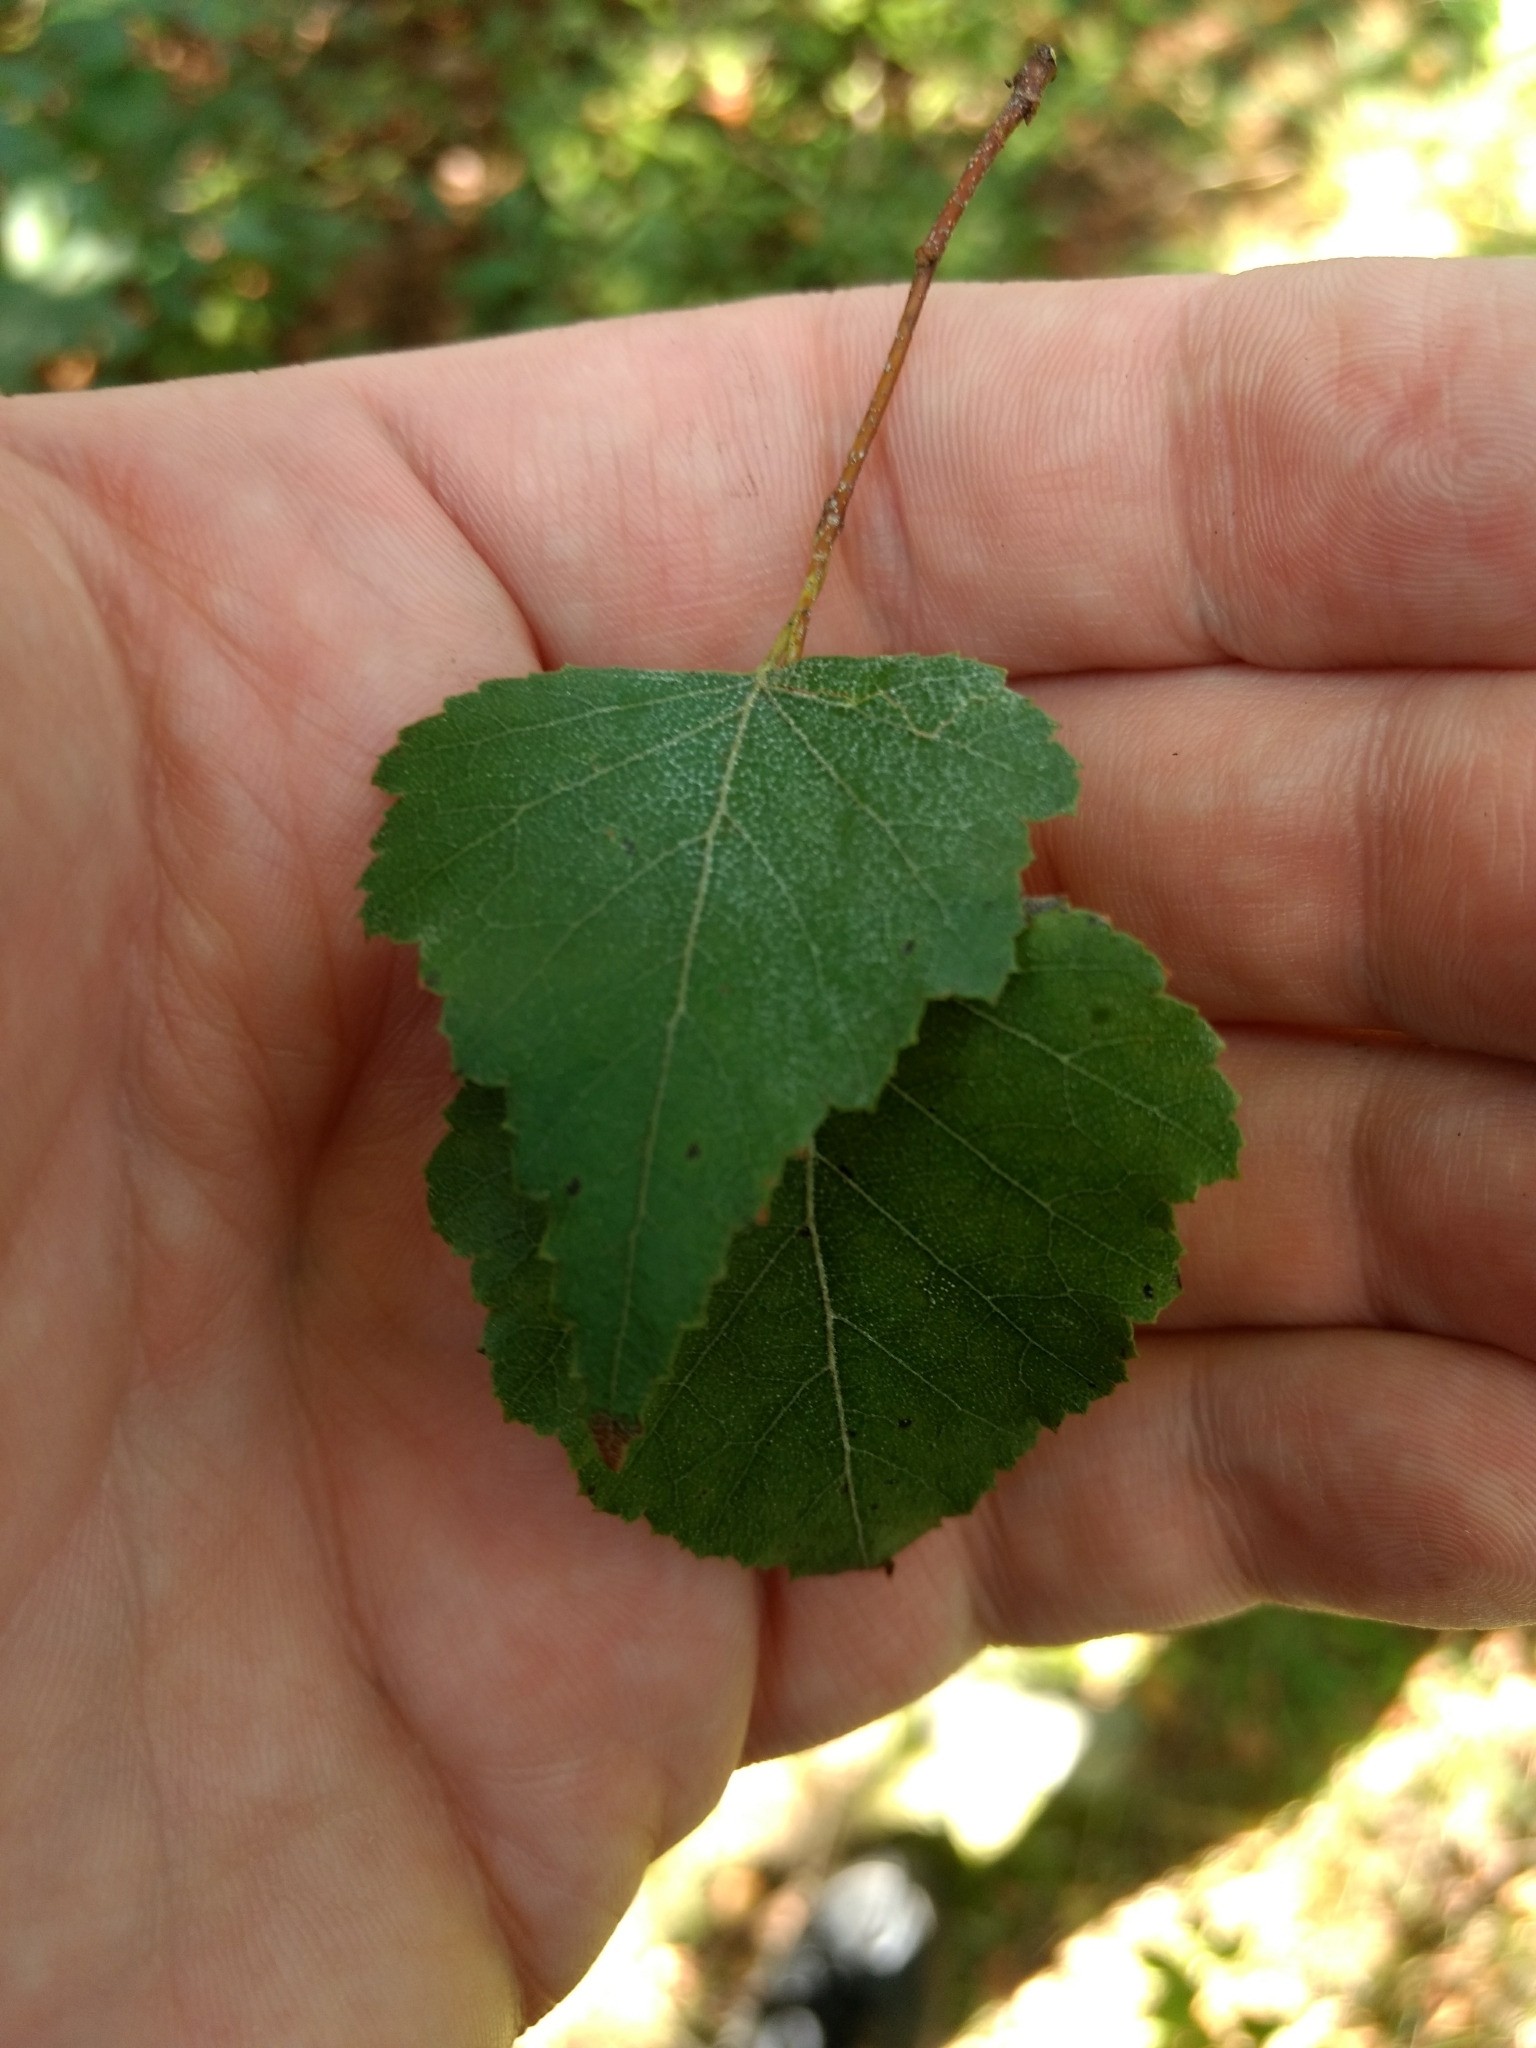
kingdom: Plantae
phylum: Tracheophyta
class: Magnoliopsida
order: Fagales
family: Betulaceae
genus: Betula
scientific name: Betula populifolia
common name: Fire birch
